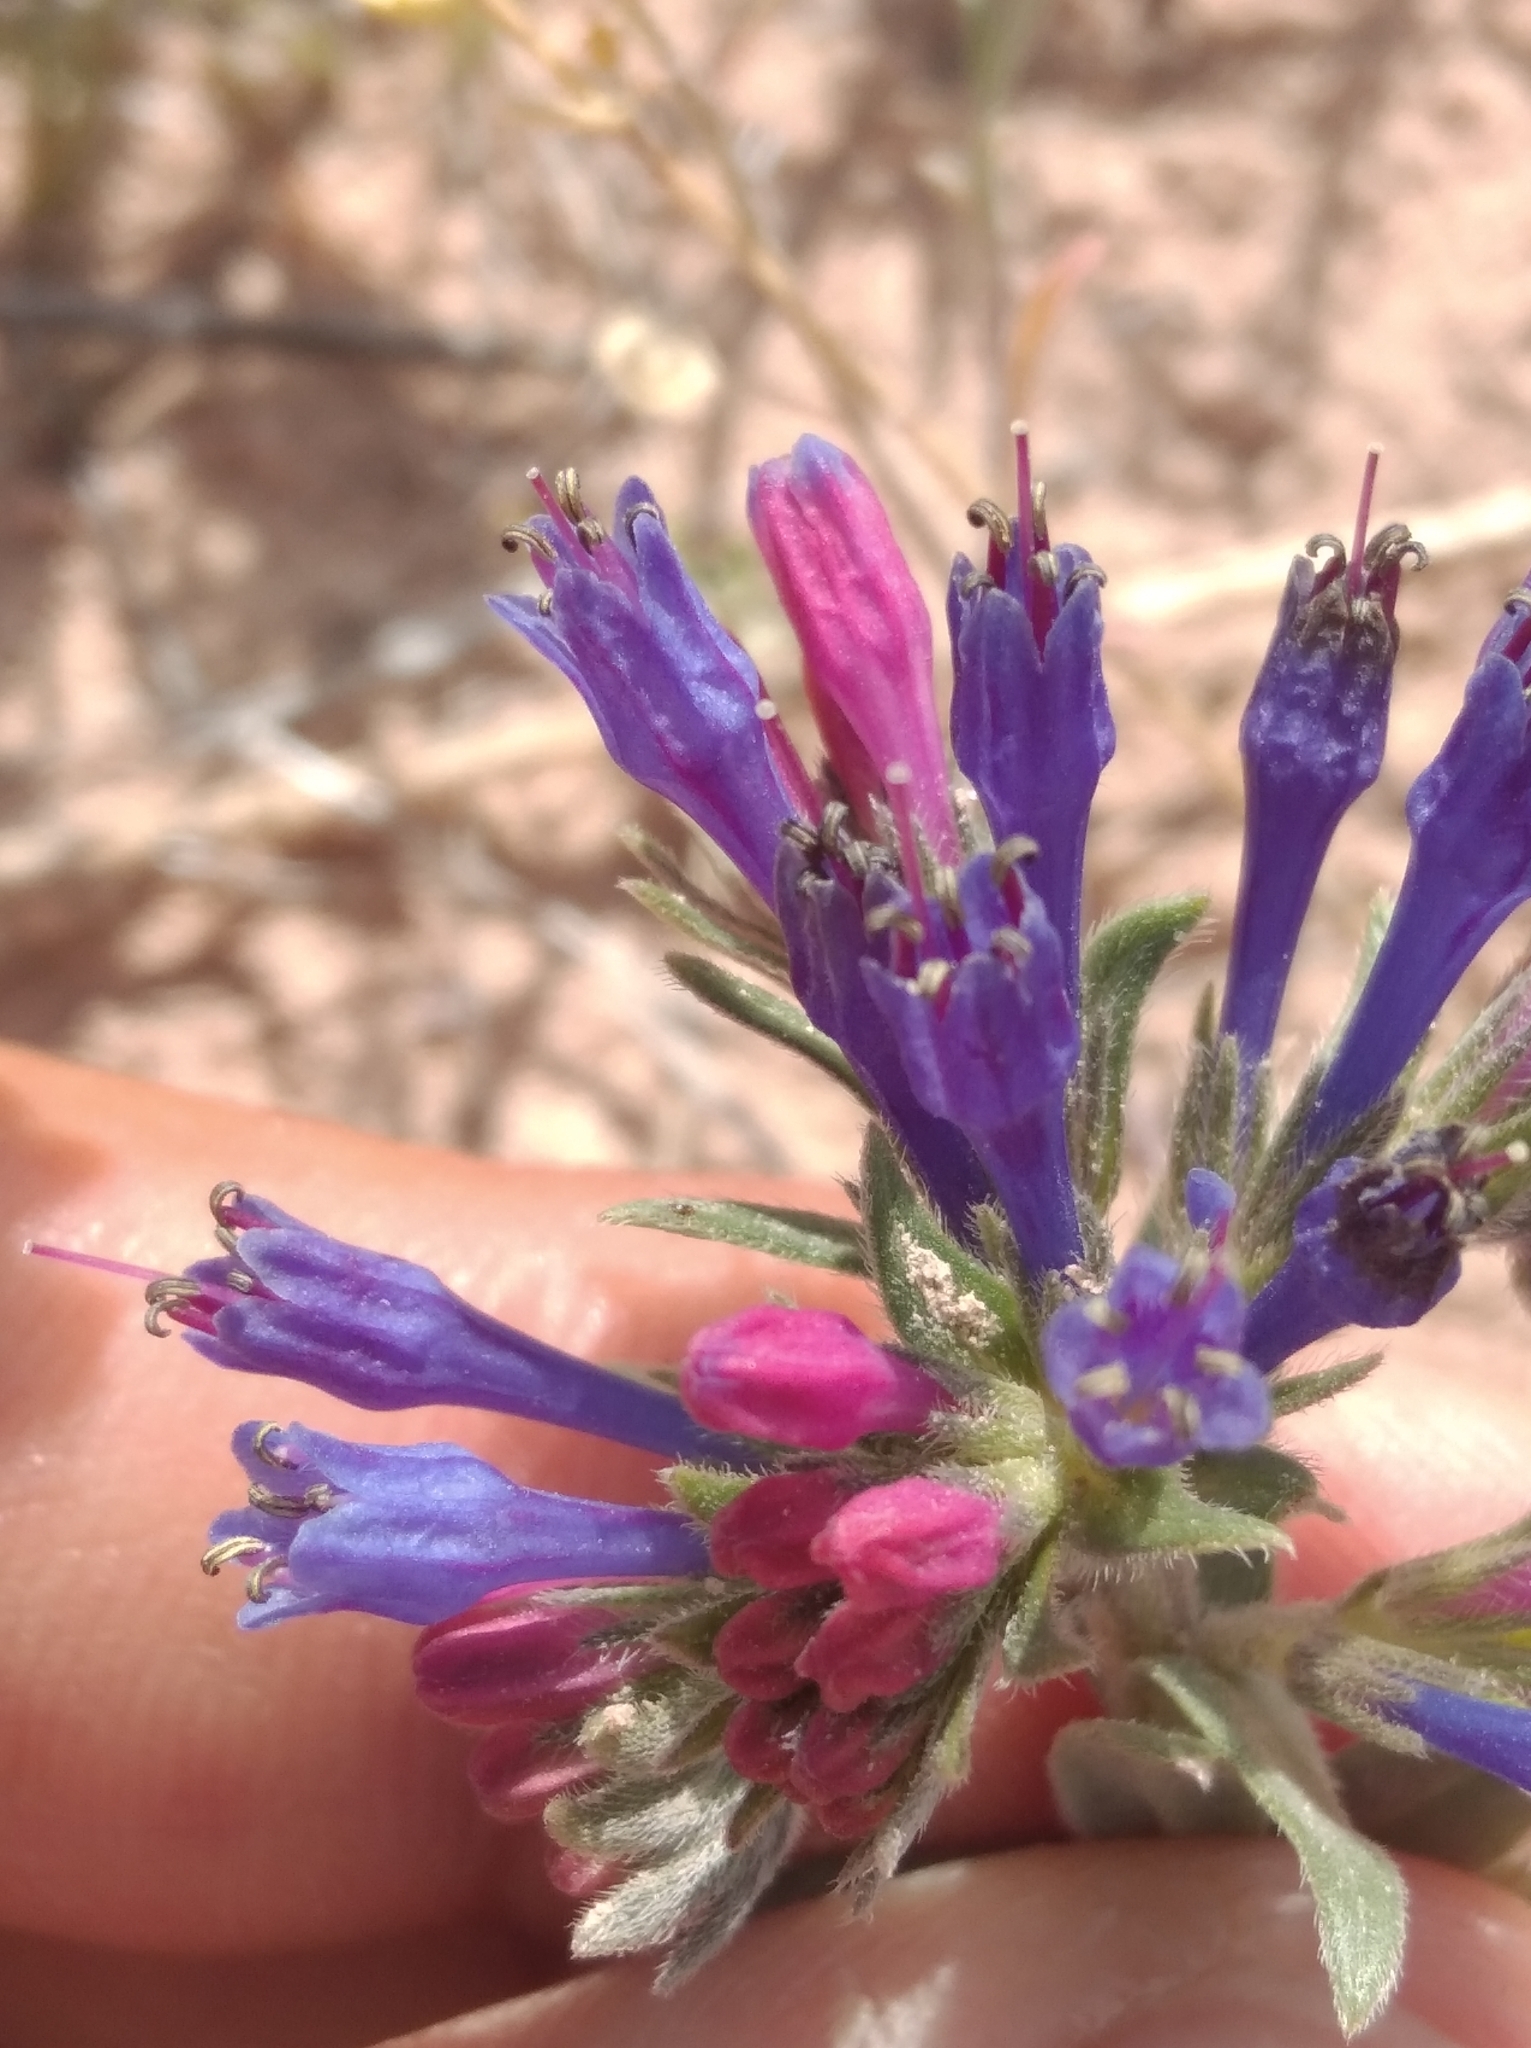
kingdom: Plantae
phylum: Tracheophyta
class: Magnoliopsida
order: Boraginales
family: Boraginaceae
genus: Moltkia
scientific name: Moltkia coerulea
